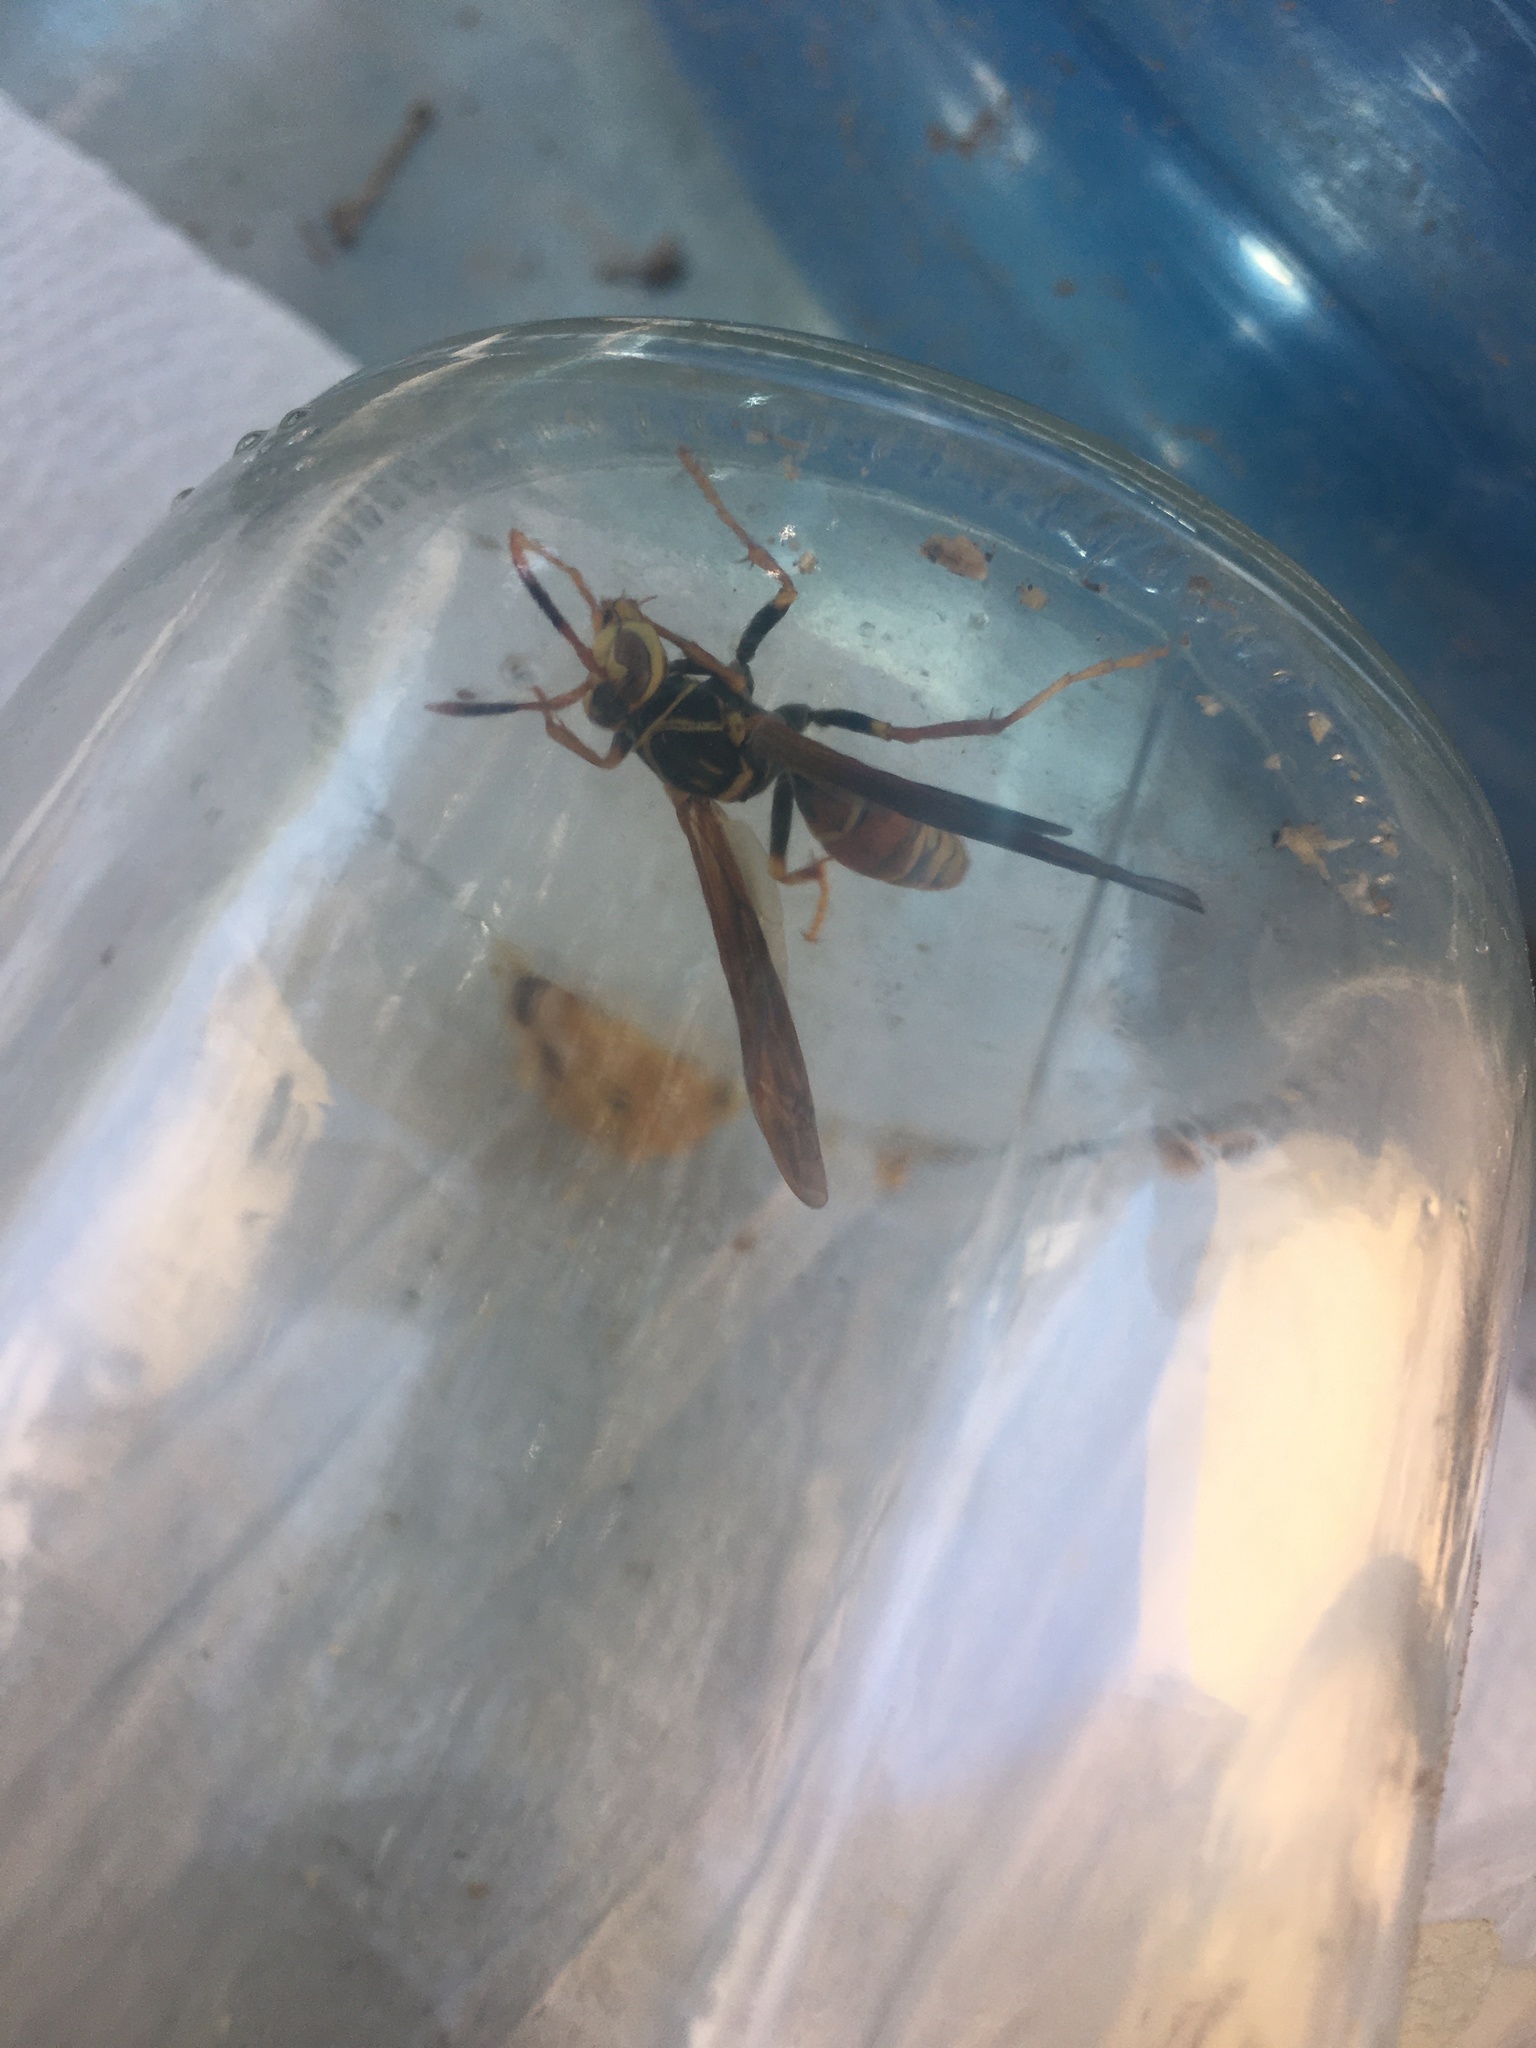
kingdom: Animalia
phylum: Arthropoda
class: Insecta
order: Hymenoptera
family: Eumenidae
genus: Polistes
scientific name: Polistes buyssoni
